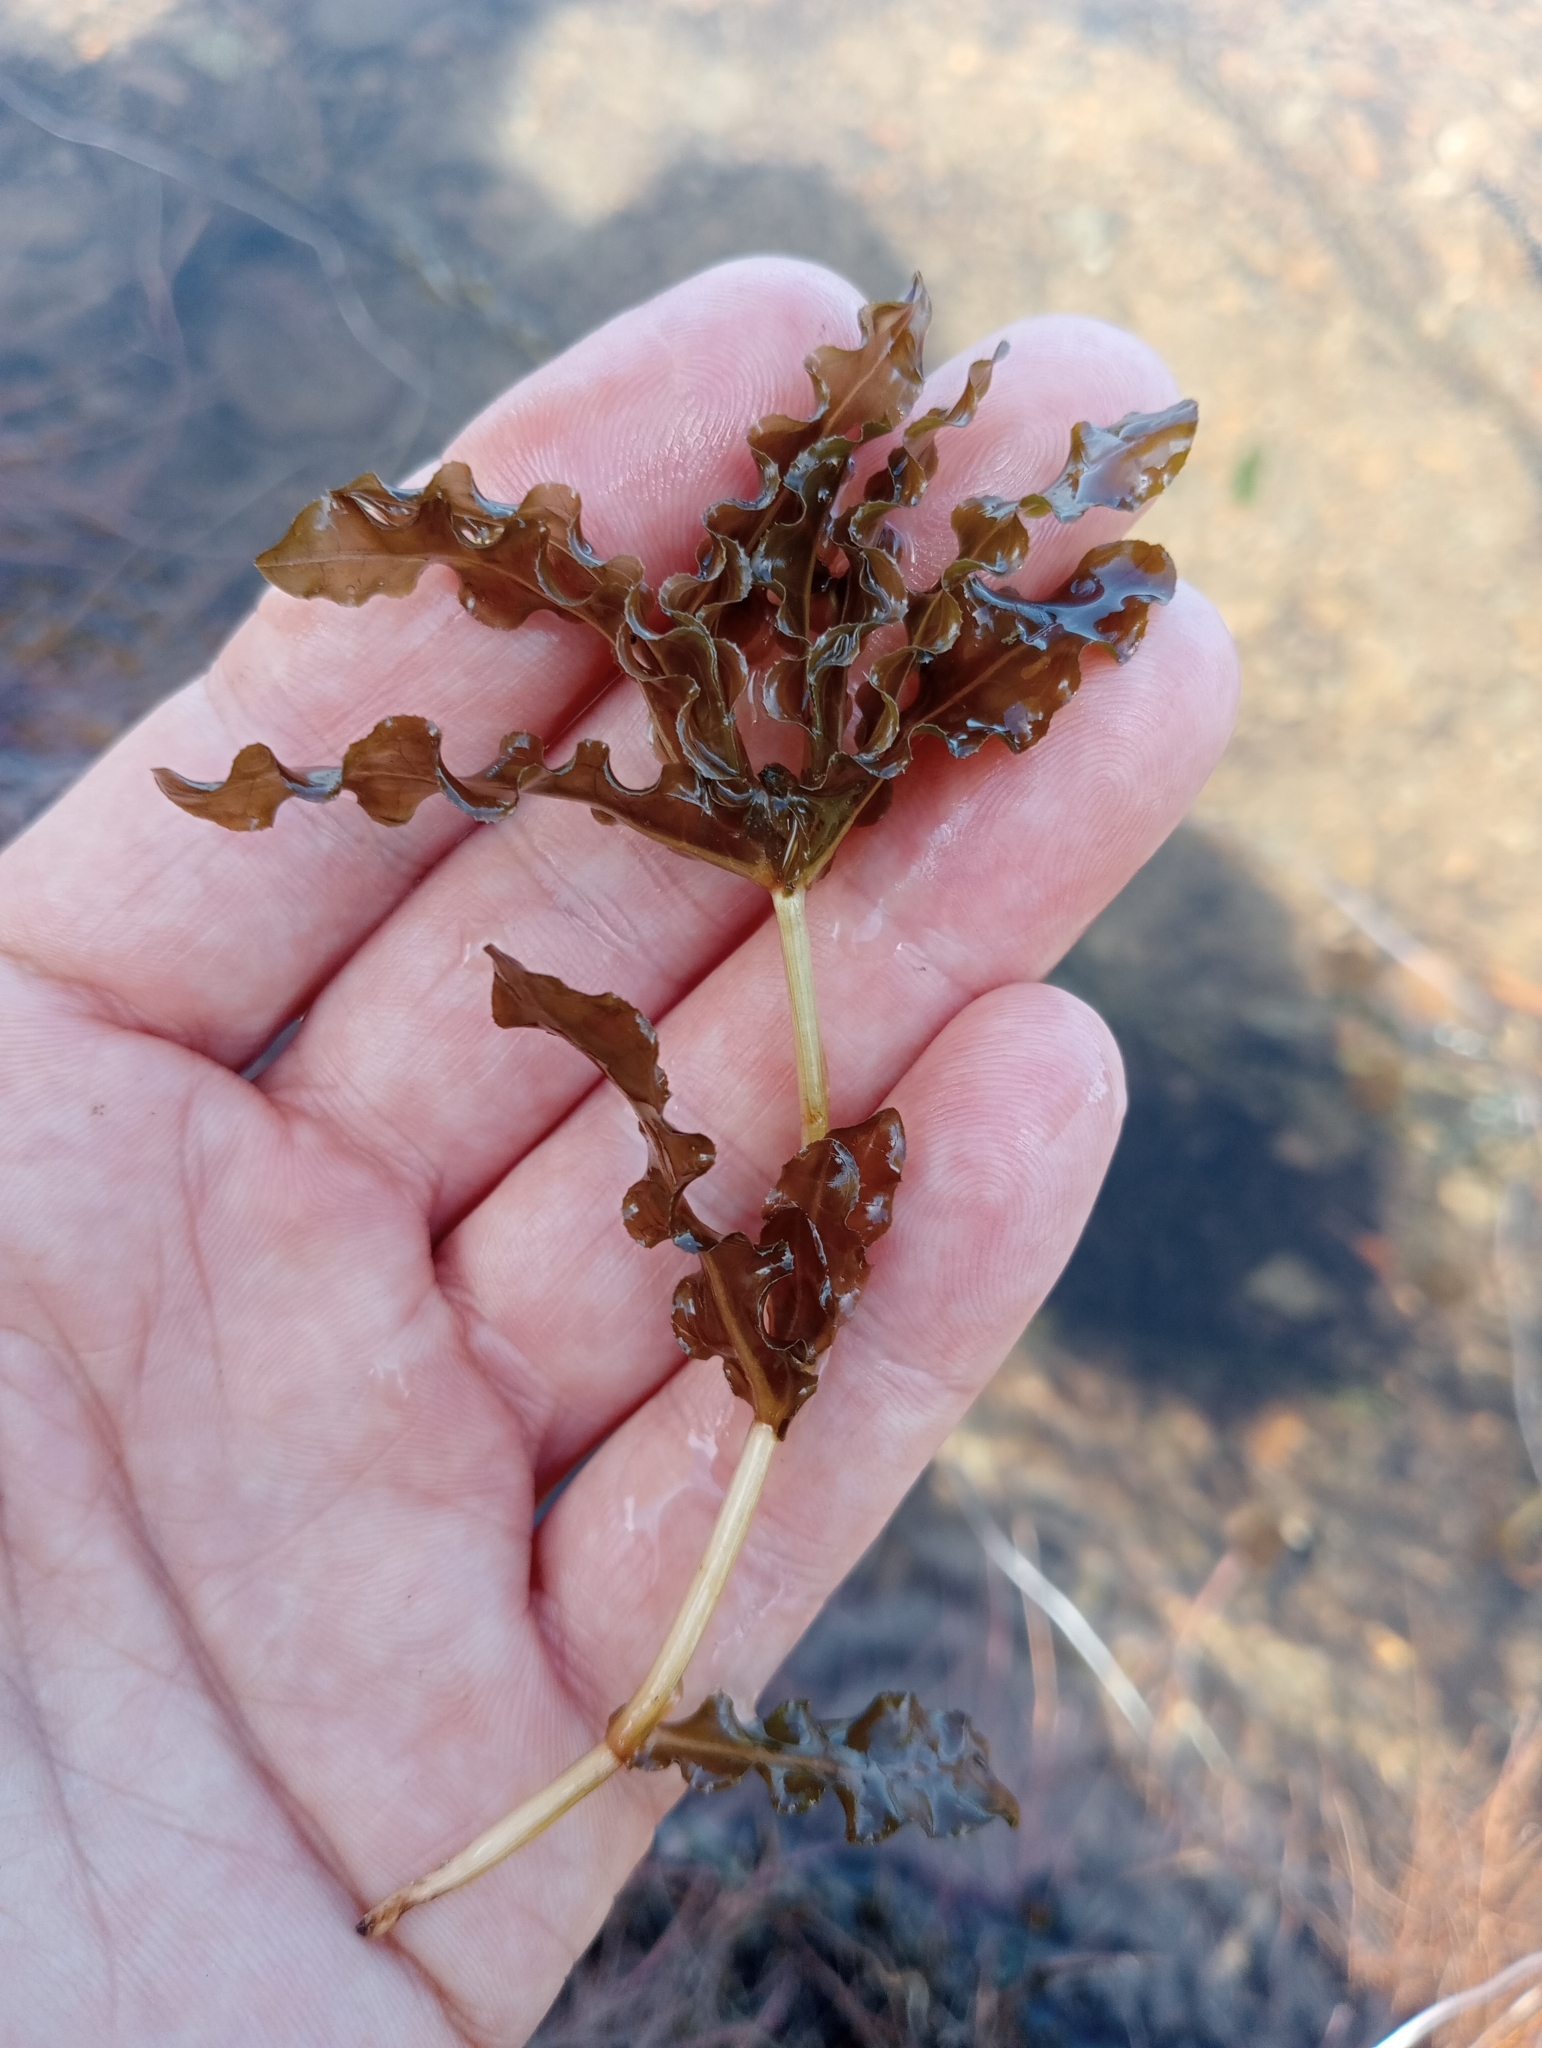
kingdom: Plantae
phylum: Tracheophyta
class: Liliopsida
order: Alismatales
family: Potamogetonaceae
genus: Potamogeton
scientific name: Potamogeton crispus
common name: Curled pondweed
